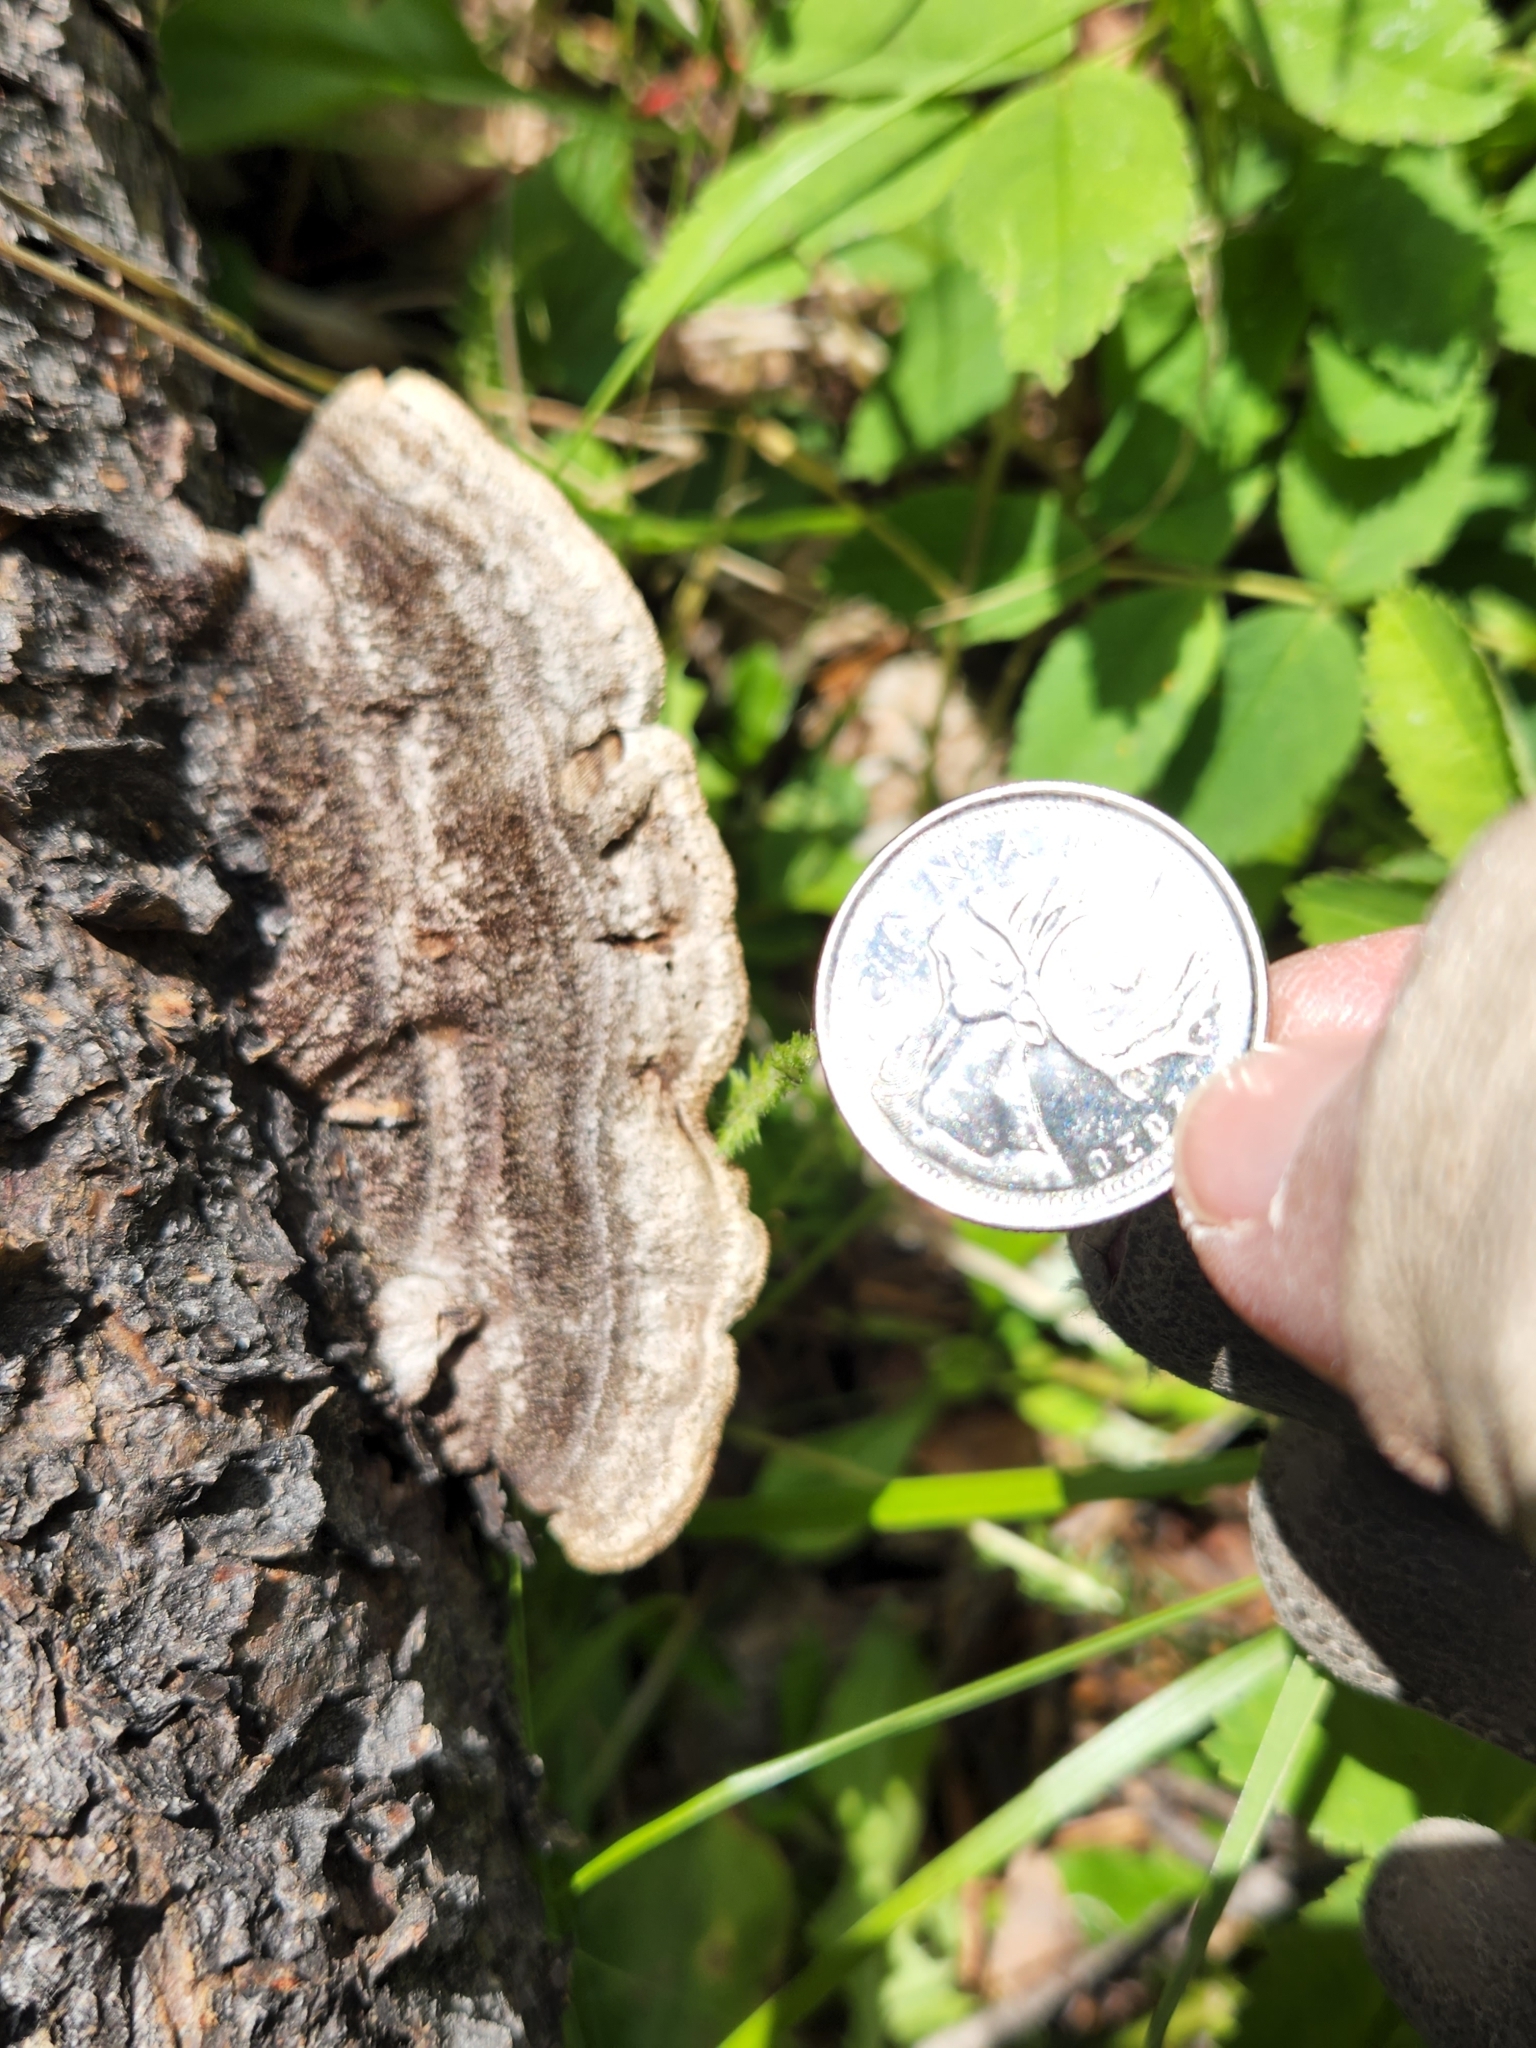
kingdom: Fungi
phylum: Basidiomycota
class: Agaricomycetes
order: Gloeophyllales
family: Gloeophyllaceae
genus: Gloeophyllum
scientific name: Gloeophyllum sepiarium
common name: Conifer mazegill
